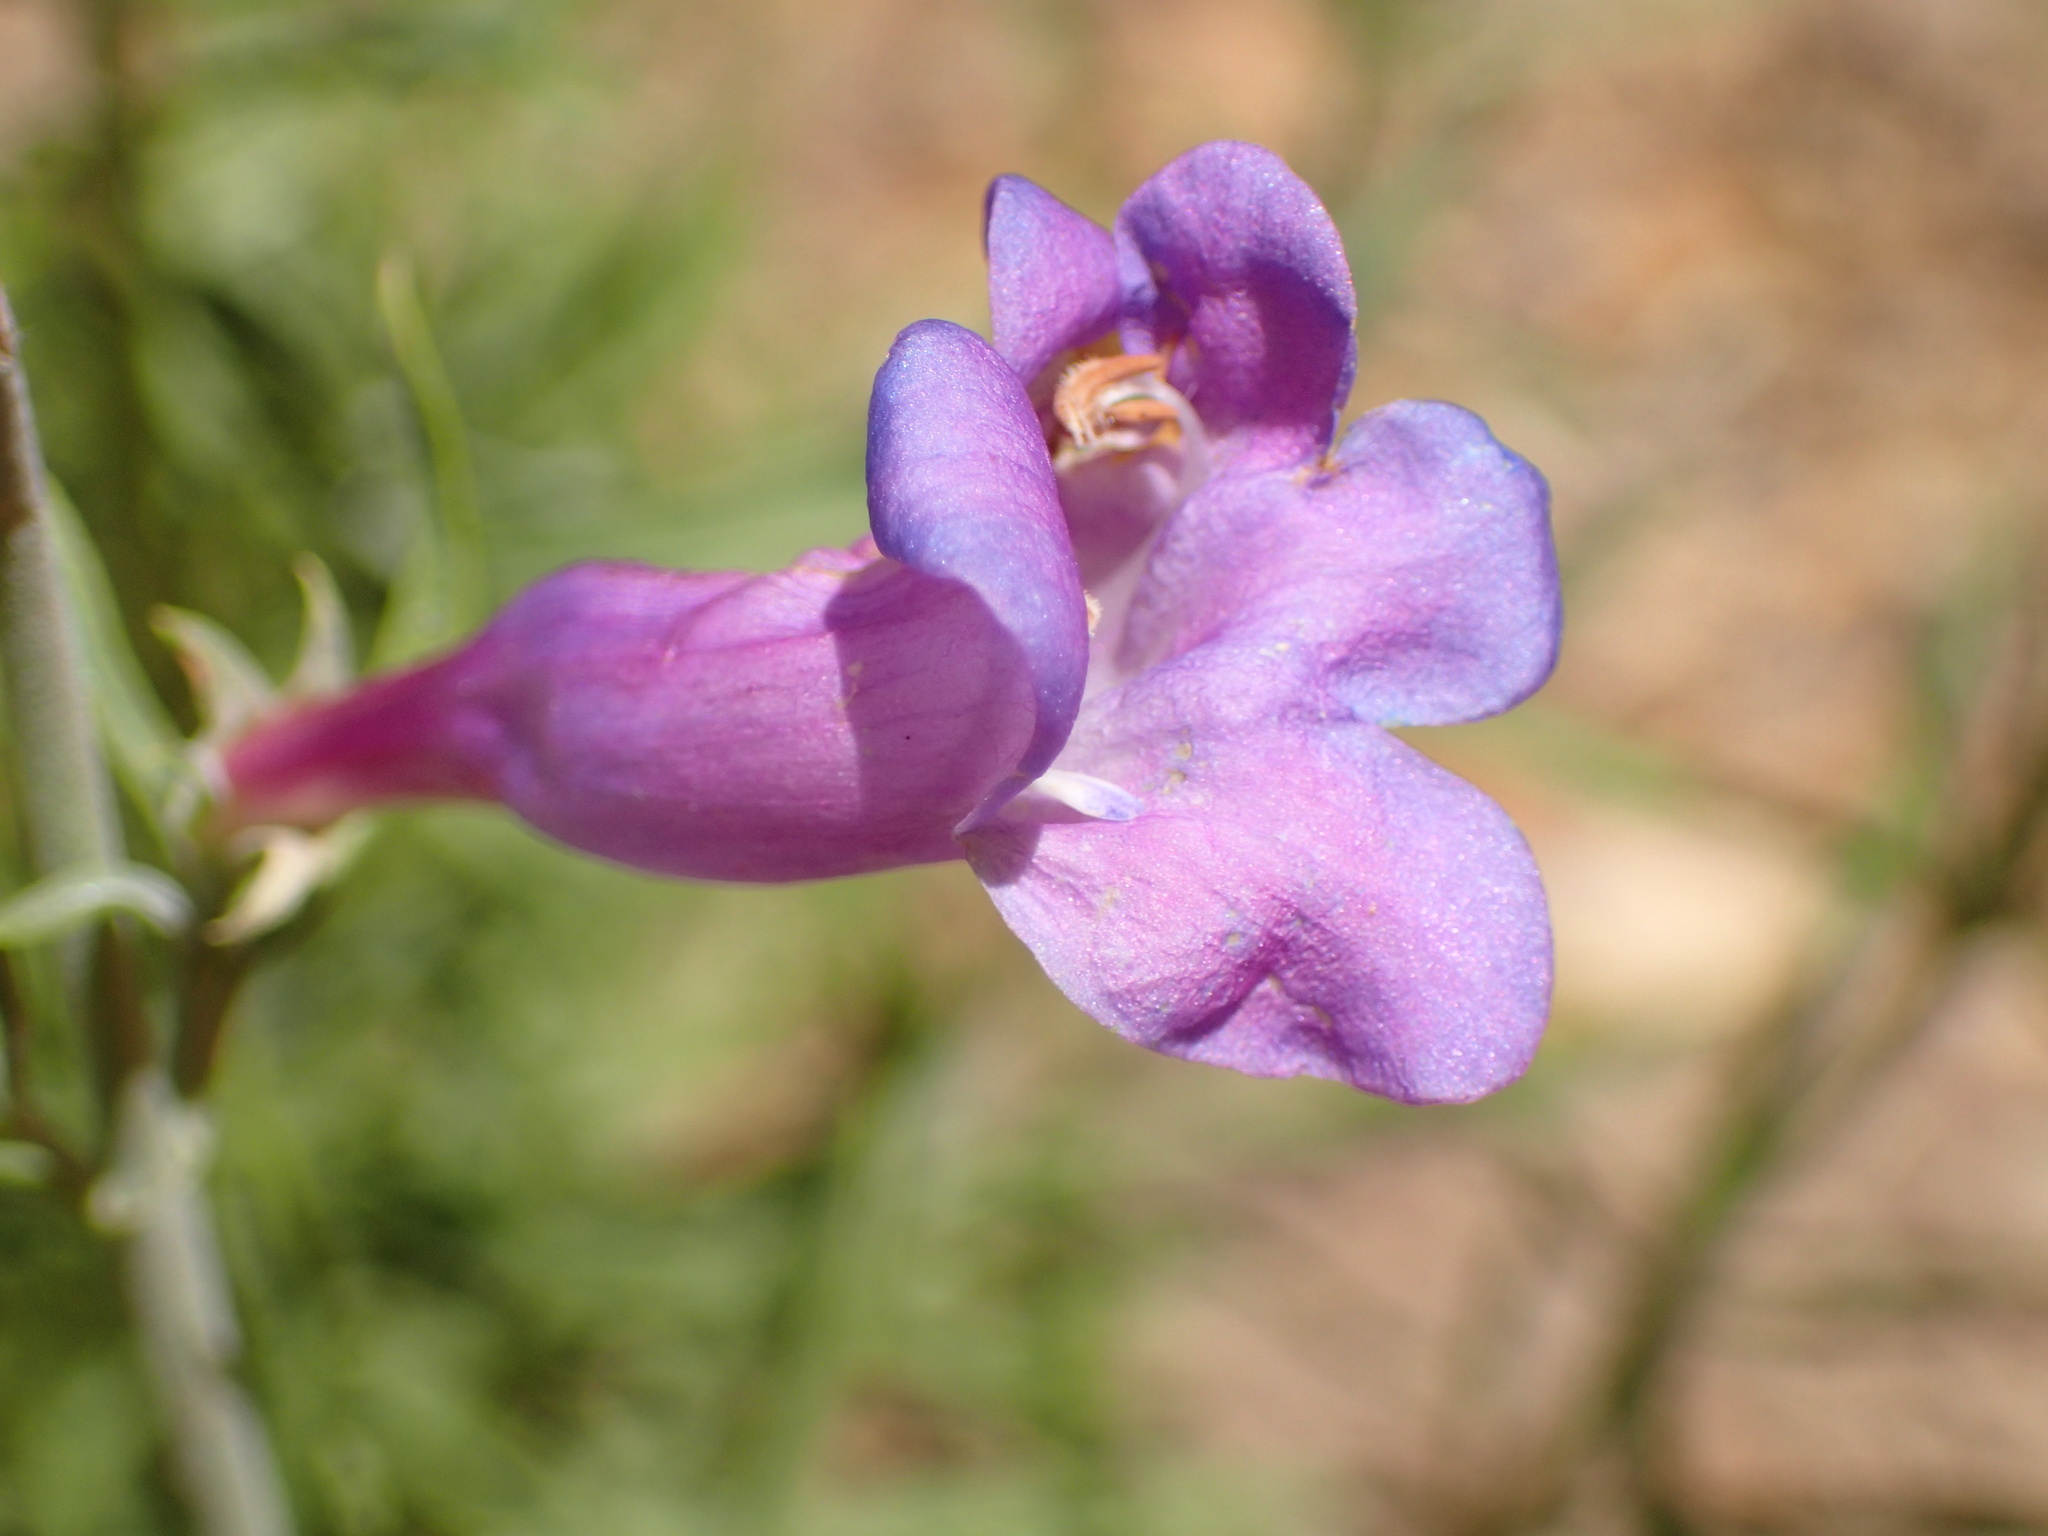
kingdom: Plantae
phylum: Tracheophyta
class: Magnoliopsida
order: Lamiales
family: Plantaginaceae
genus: Penstemon
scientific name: Penstemon heterophyllus
